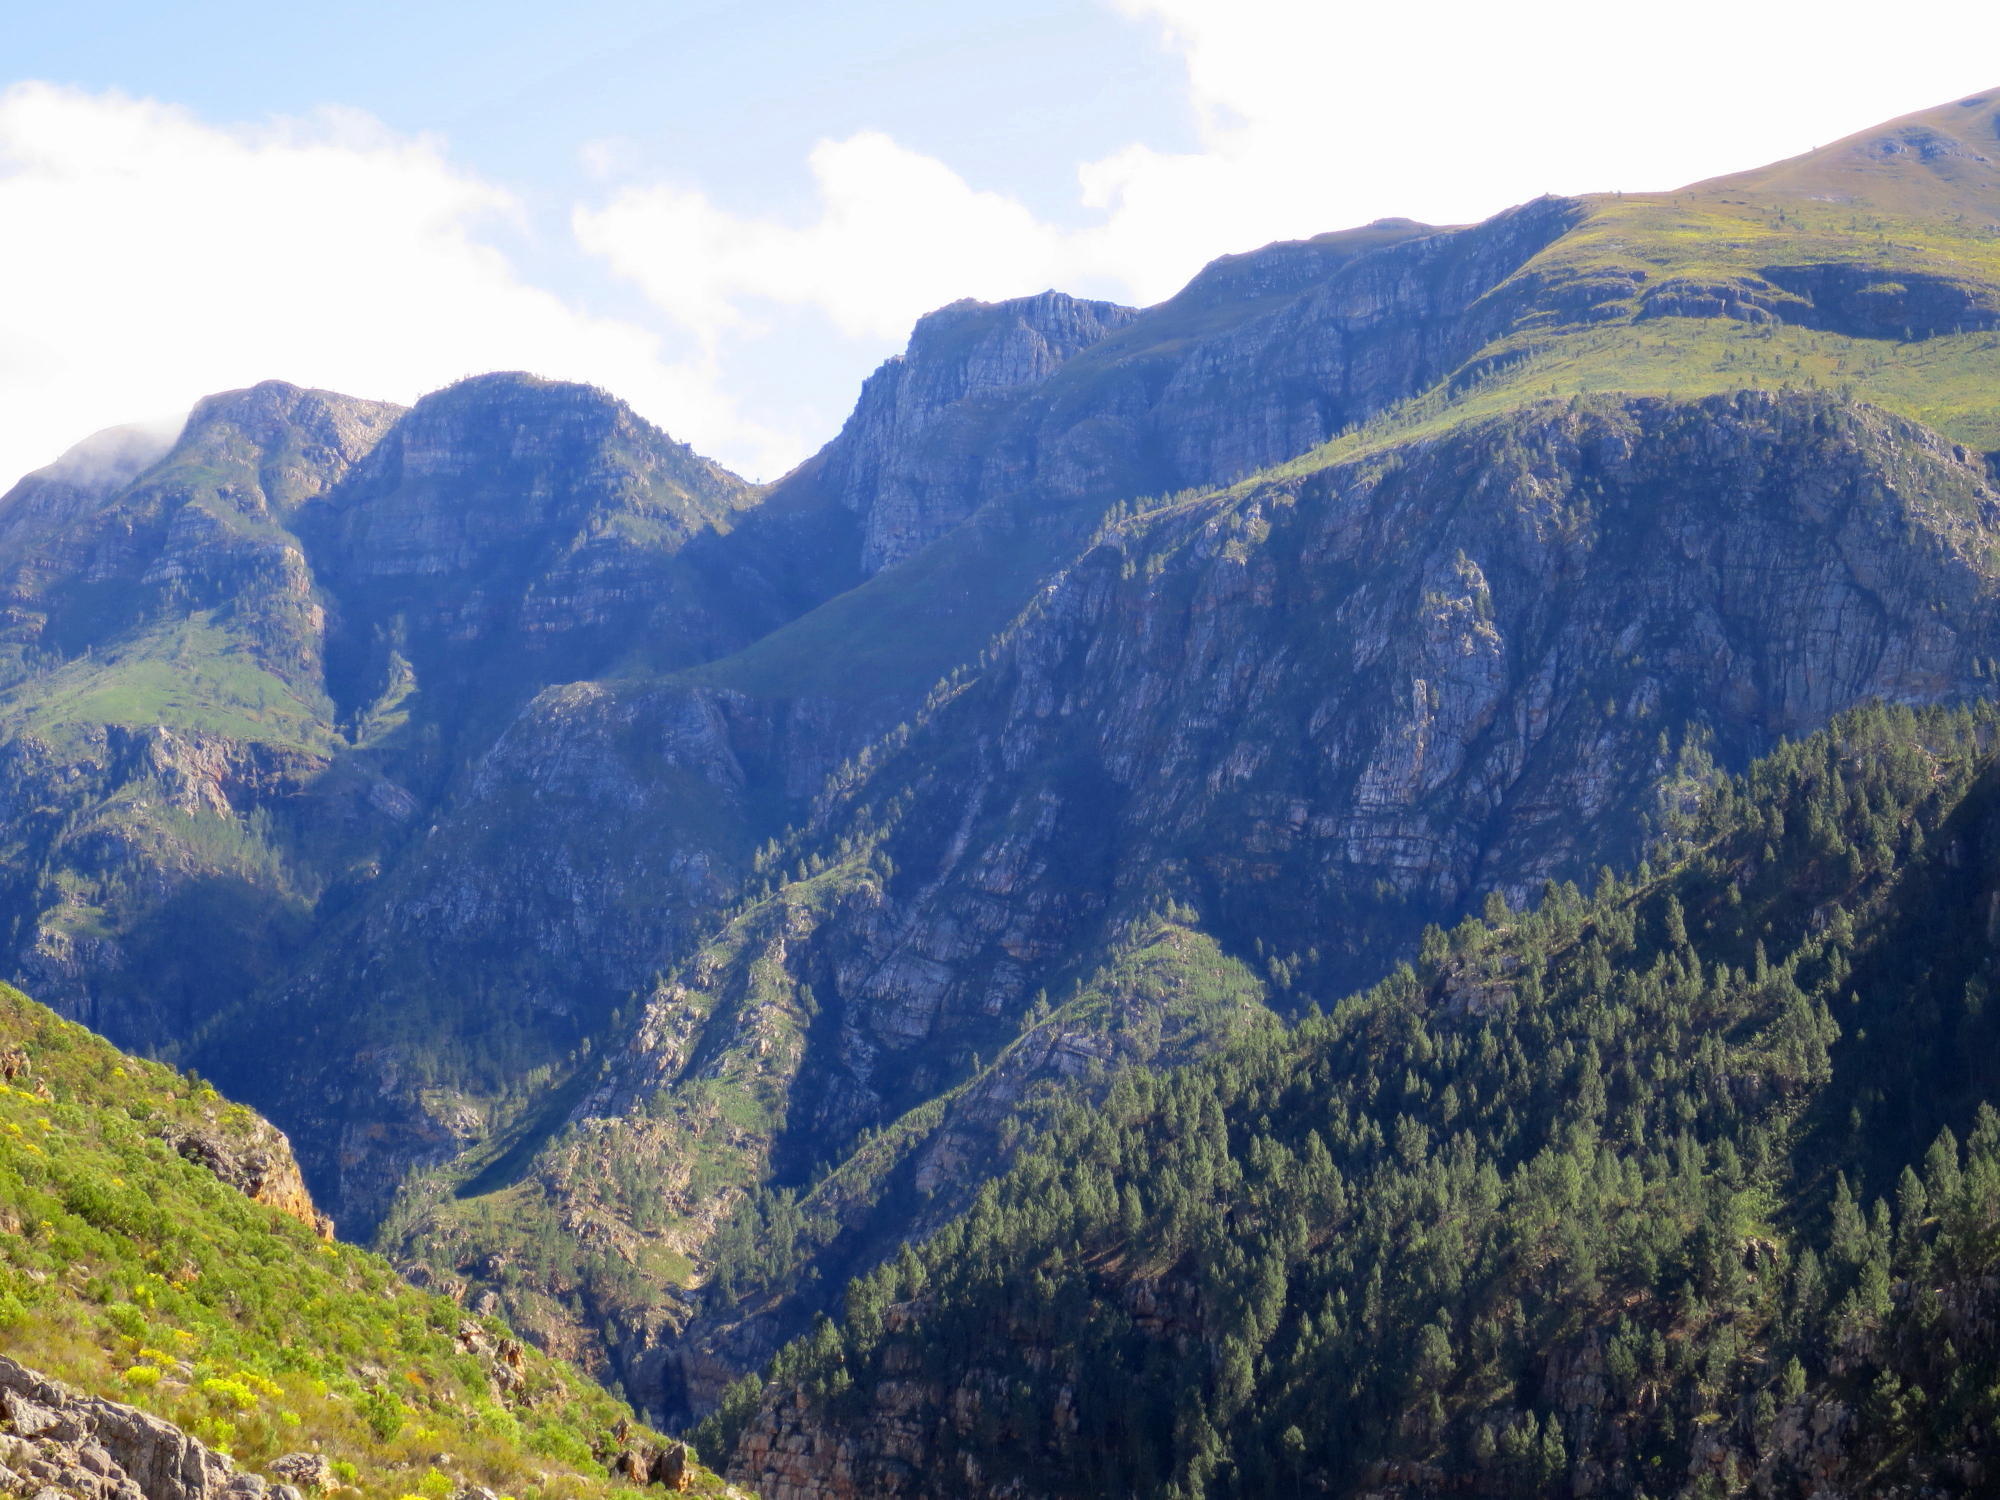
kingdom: Plantae
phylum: Tracheophyta
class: Pinopsida
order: Pinales
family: Pinaceae
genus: Pinus
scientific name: Pinus pinaster
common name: Maritime pine
